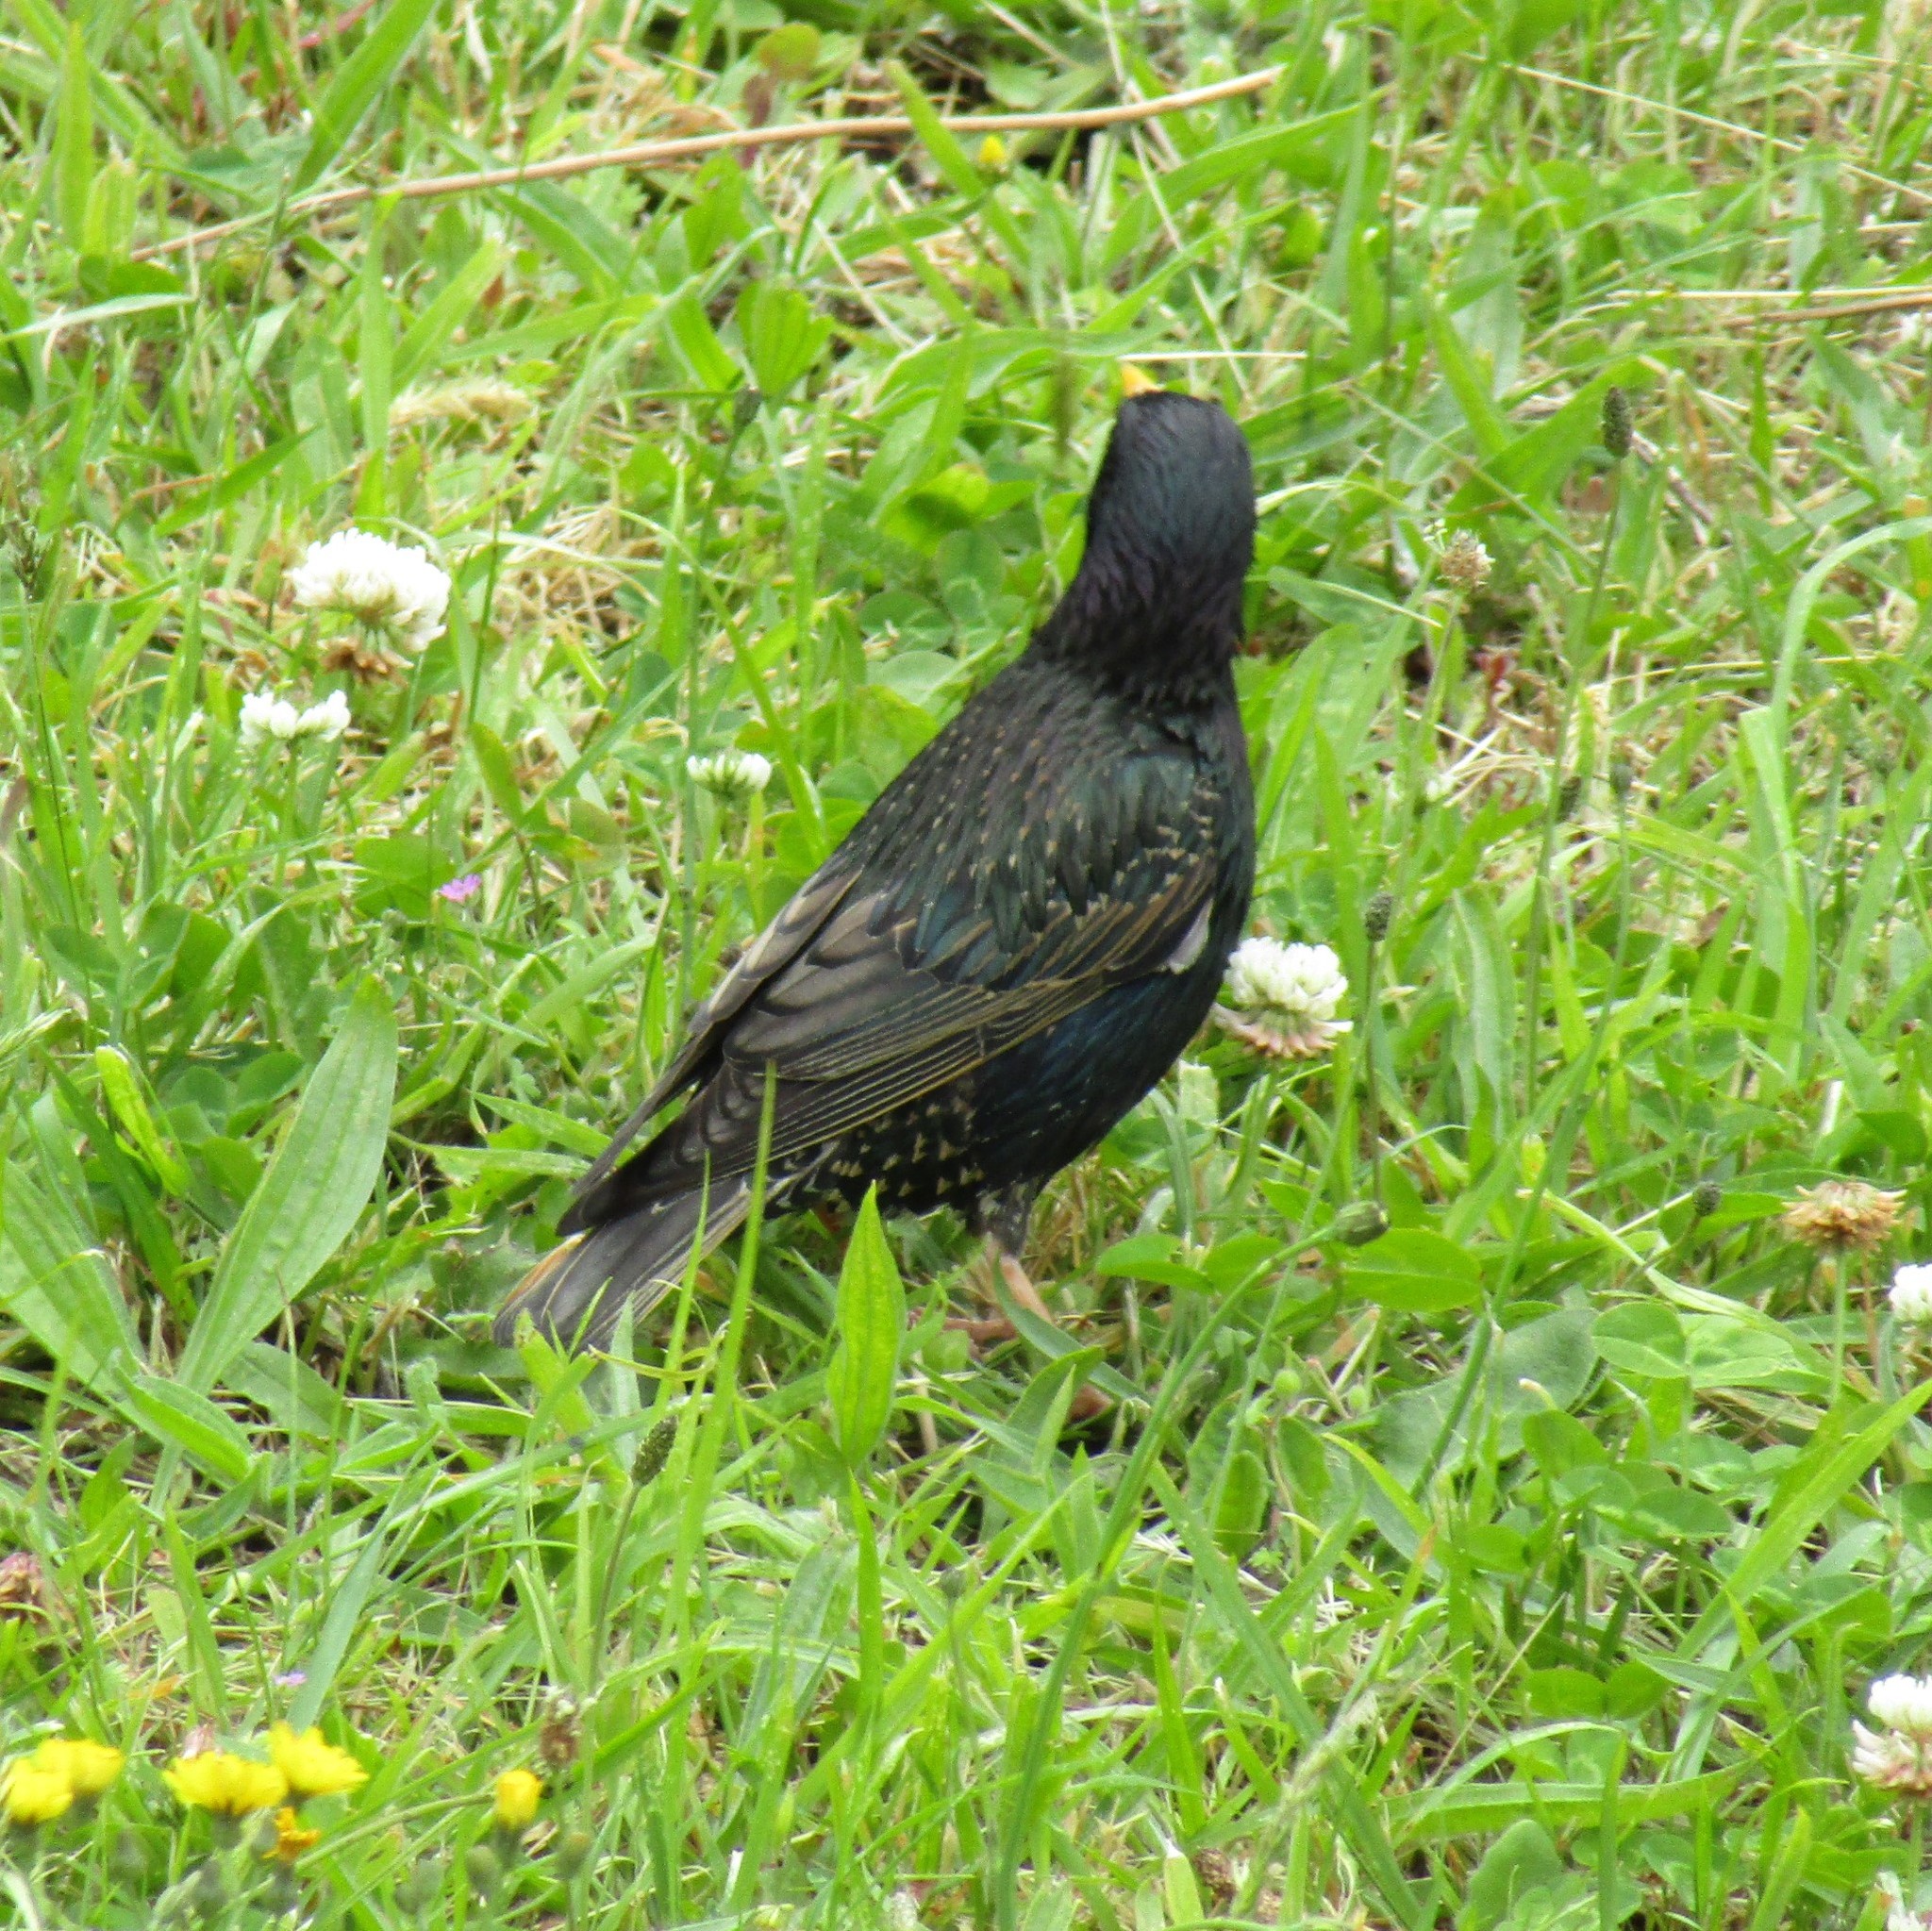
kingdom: Animalia
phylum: Chordata
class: Aves
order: Passeriformes
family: Sturnidae
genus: Sturnus
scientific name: Sturnus vulgaris
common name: Common starling
